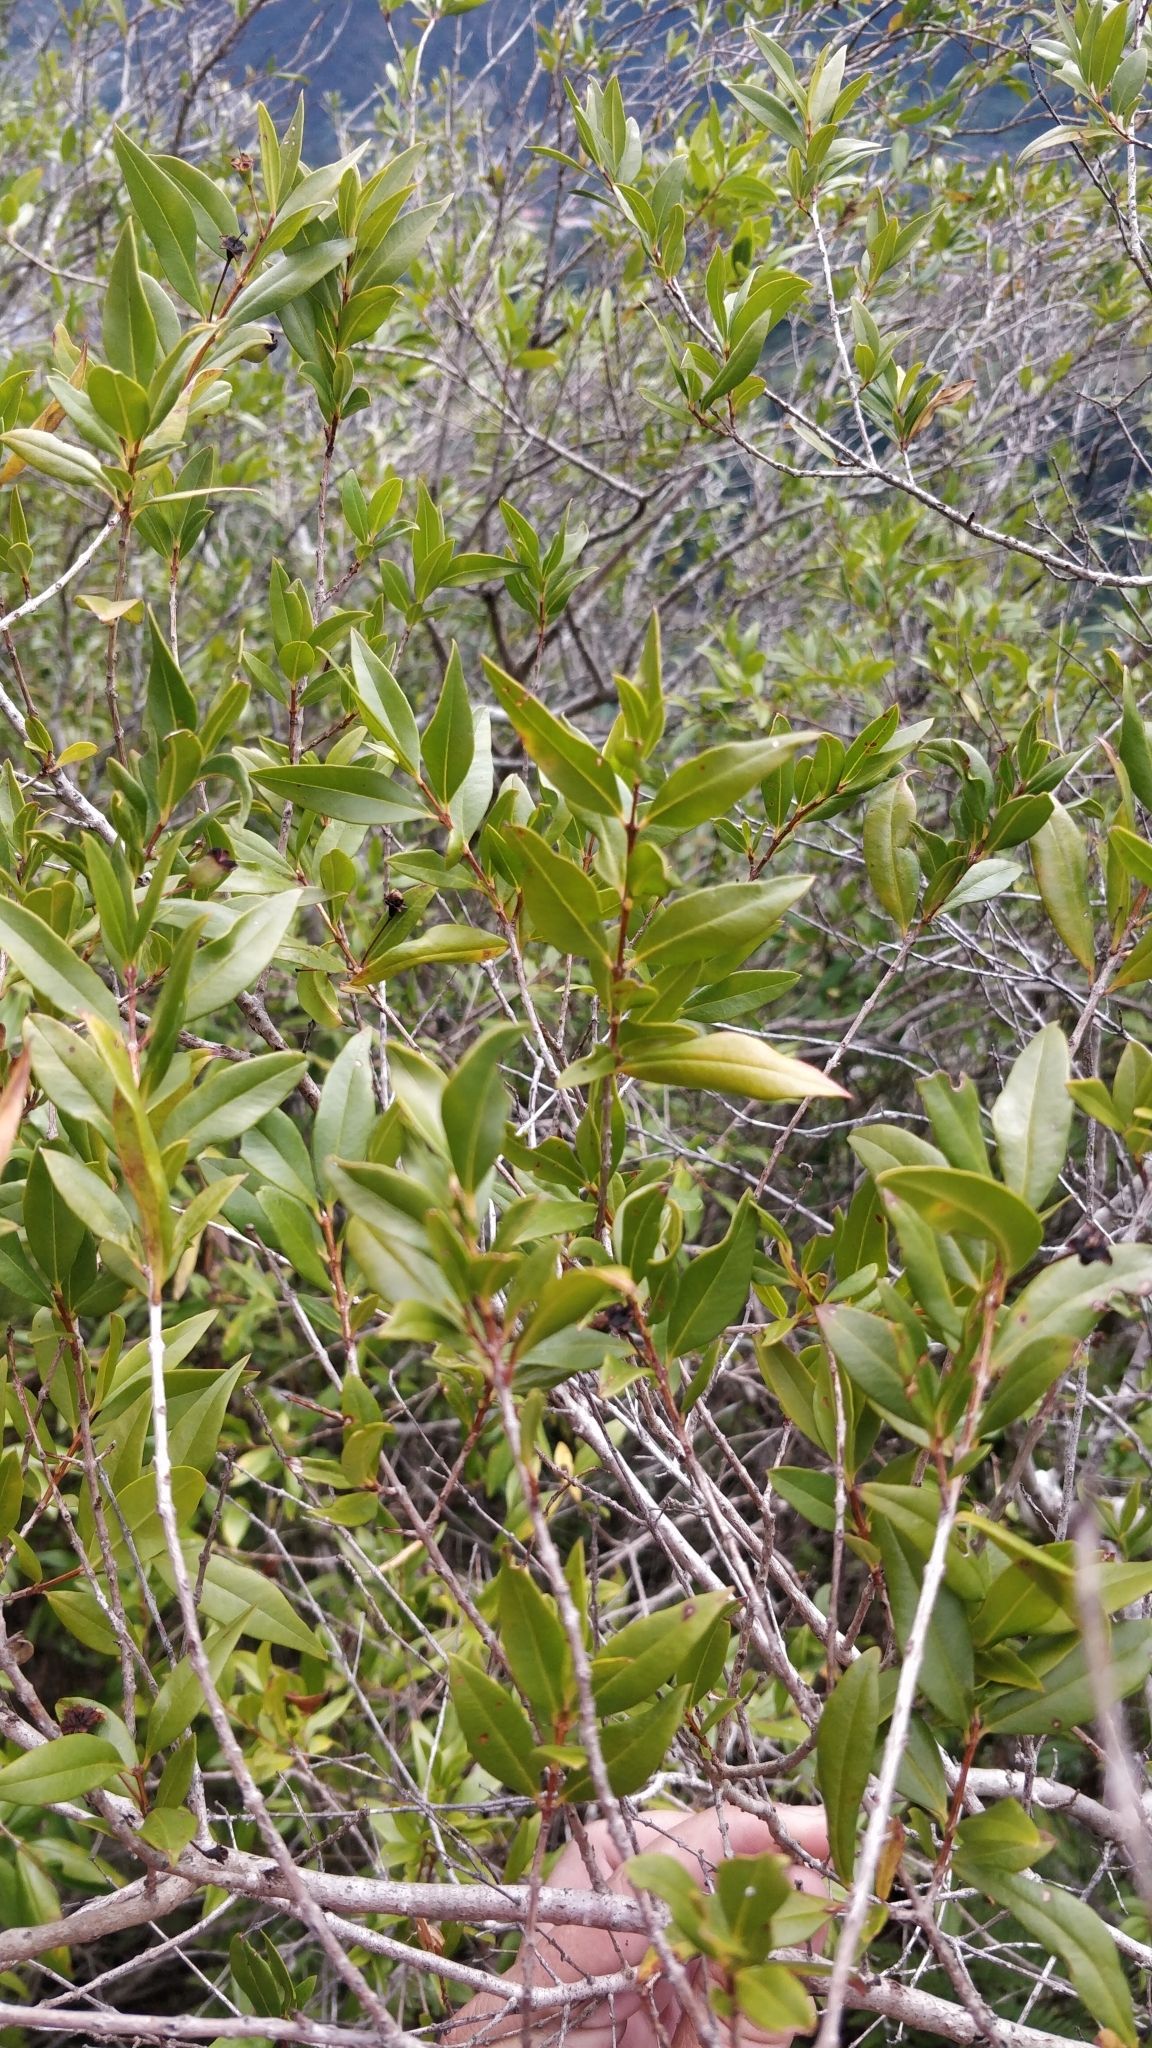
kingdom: Plantae
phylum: Tracheophyta
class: Magnoliopsida
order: Myrtales
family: Myrtaceae
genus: Myrtus
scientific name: Myrtus communis
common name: Myrtle
